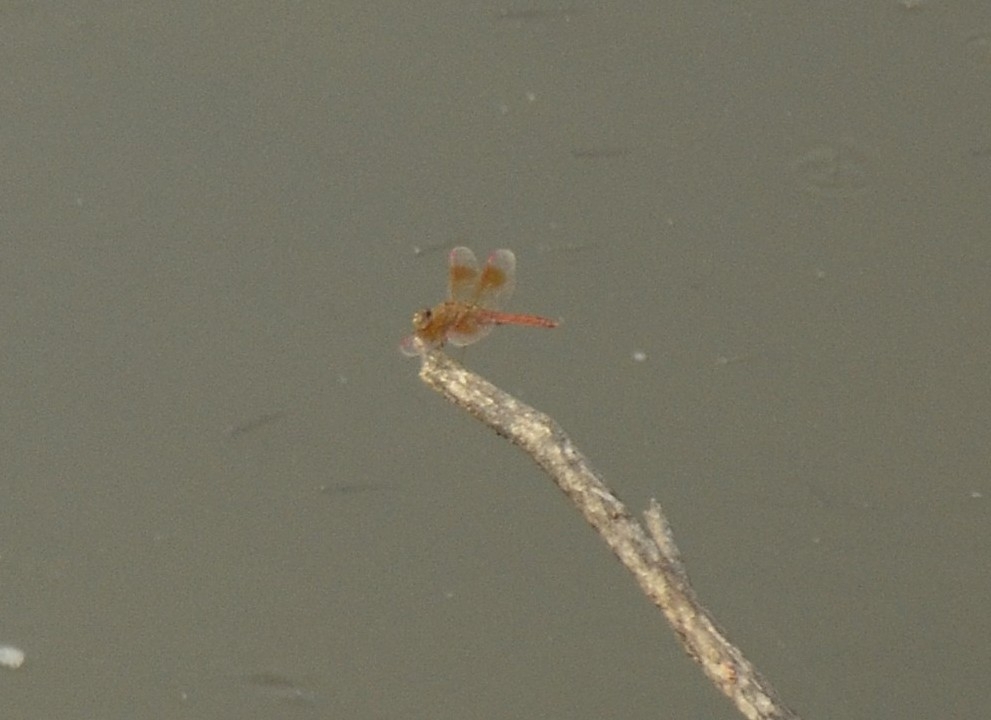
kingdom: Animalia
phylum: Arthropoda
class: Insecta
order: Odonata
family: Libellulidae
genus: Brachythemis
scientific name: Brachythemis contaminata
